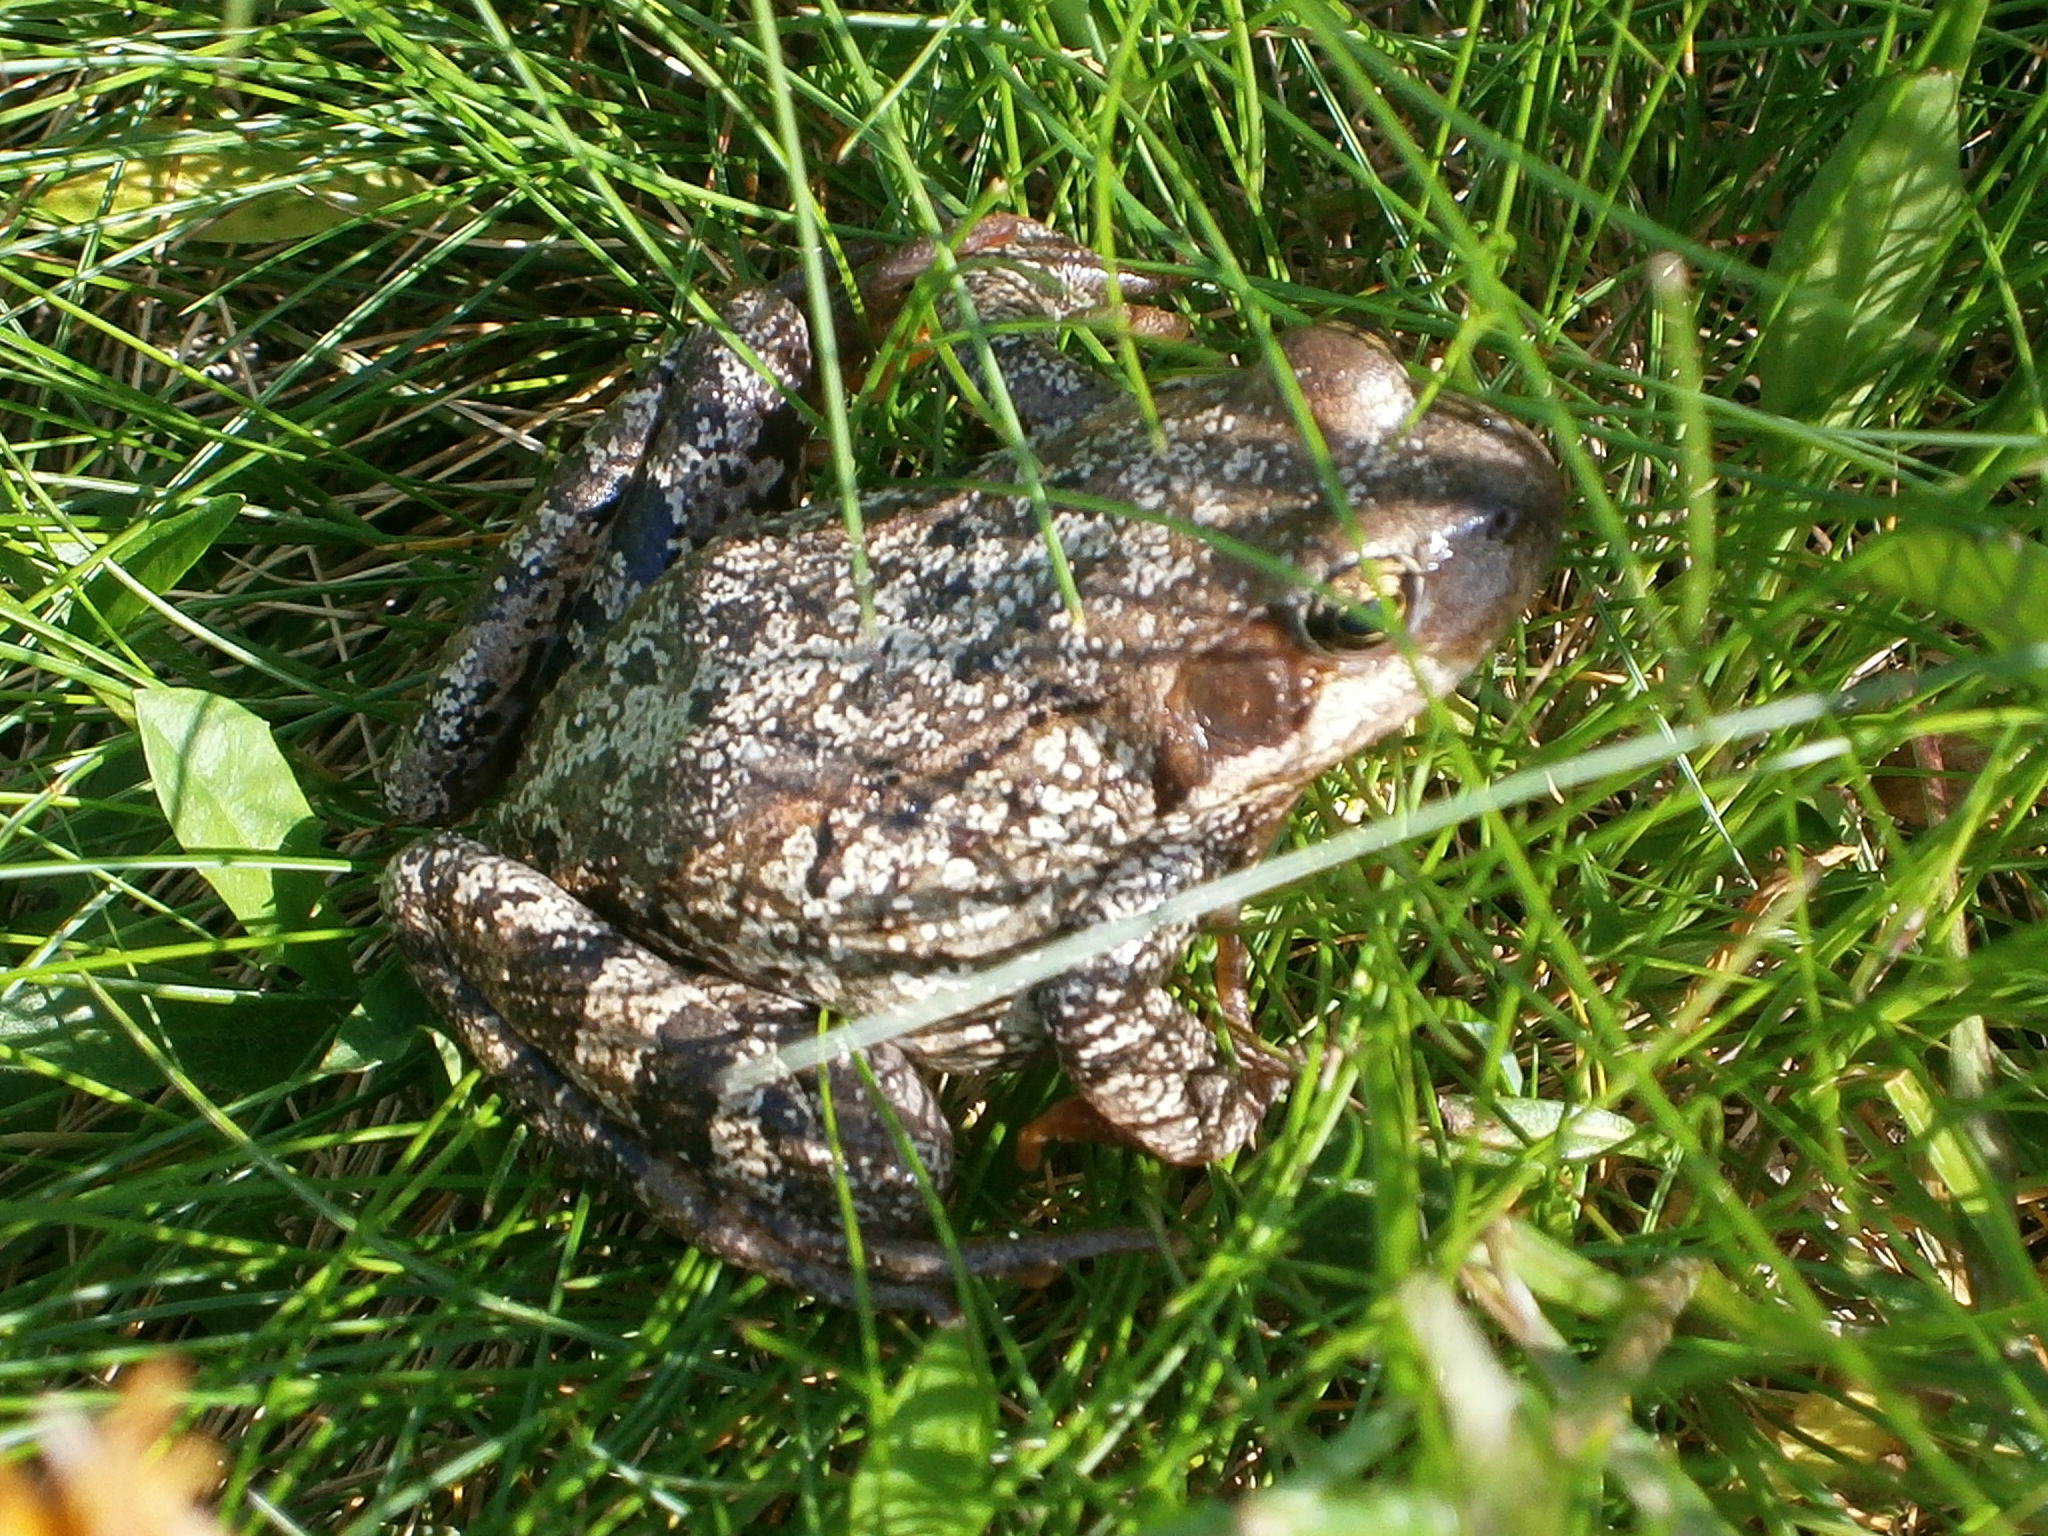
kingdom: Animalia
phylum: Chordata
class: Amphibia
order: Anura
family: Ranidae
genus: Rana
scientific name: Rana temporaria
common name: Common frog
